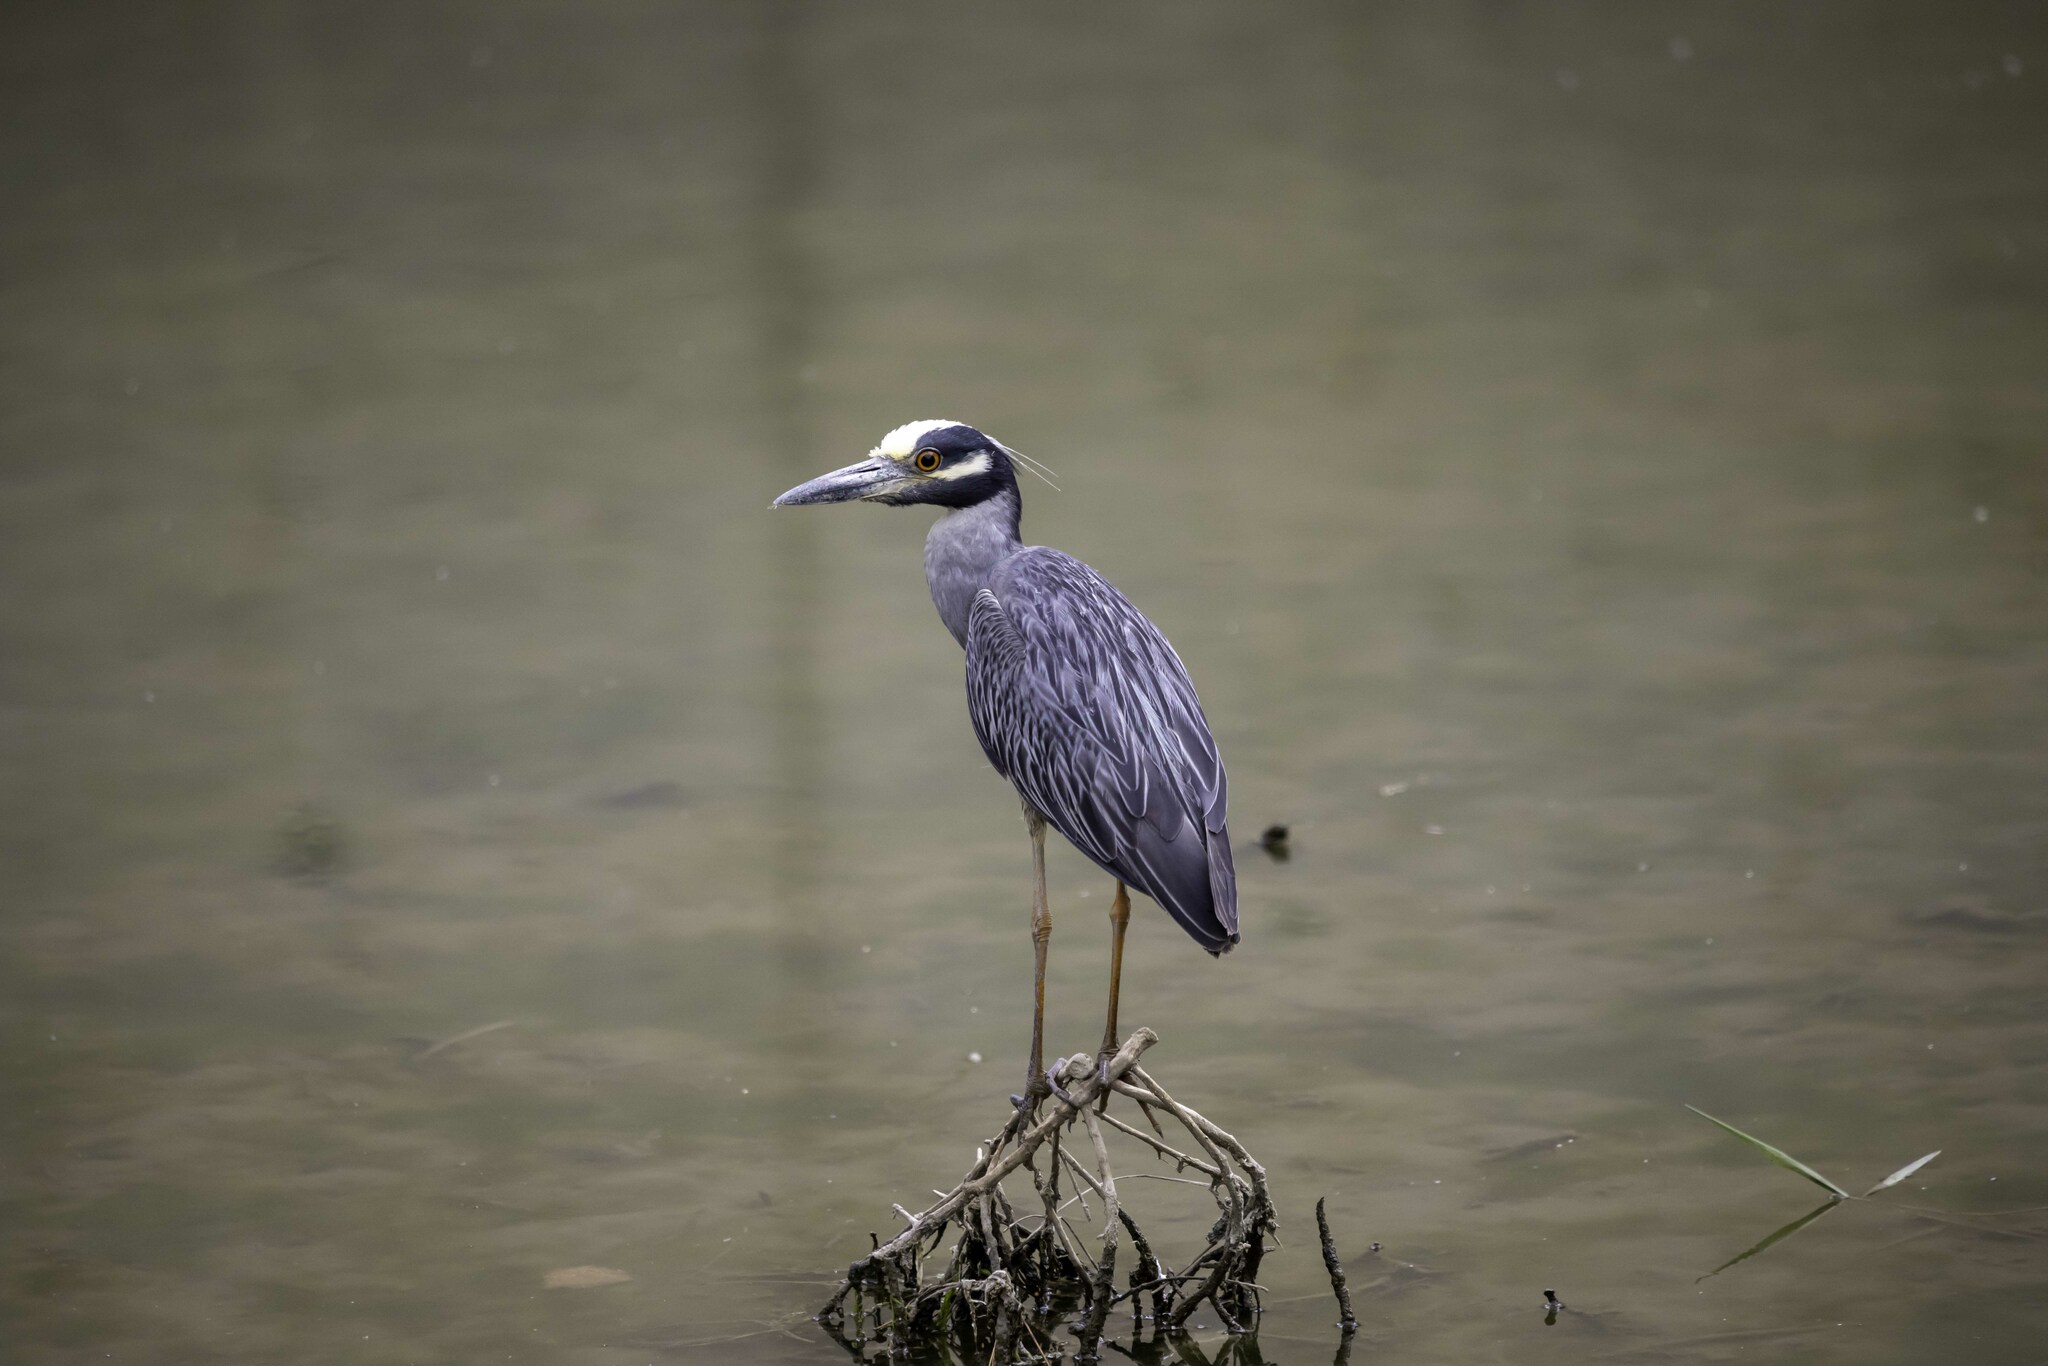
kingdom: Animalia
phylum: Chordata
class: Aves
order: Pelecaniformes
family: Ardeidae
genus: Nyctanassa
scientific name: Nyctanassa violacea
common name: Yellow-crowned night heron
